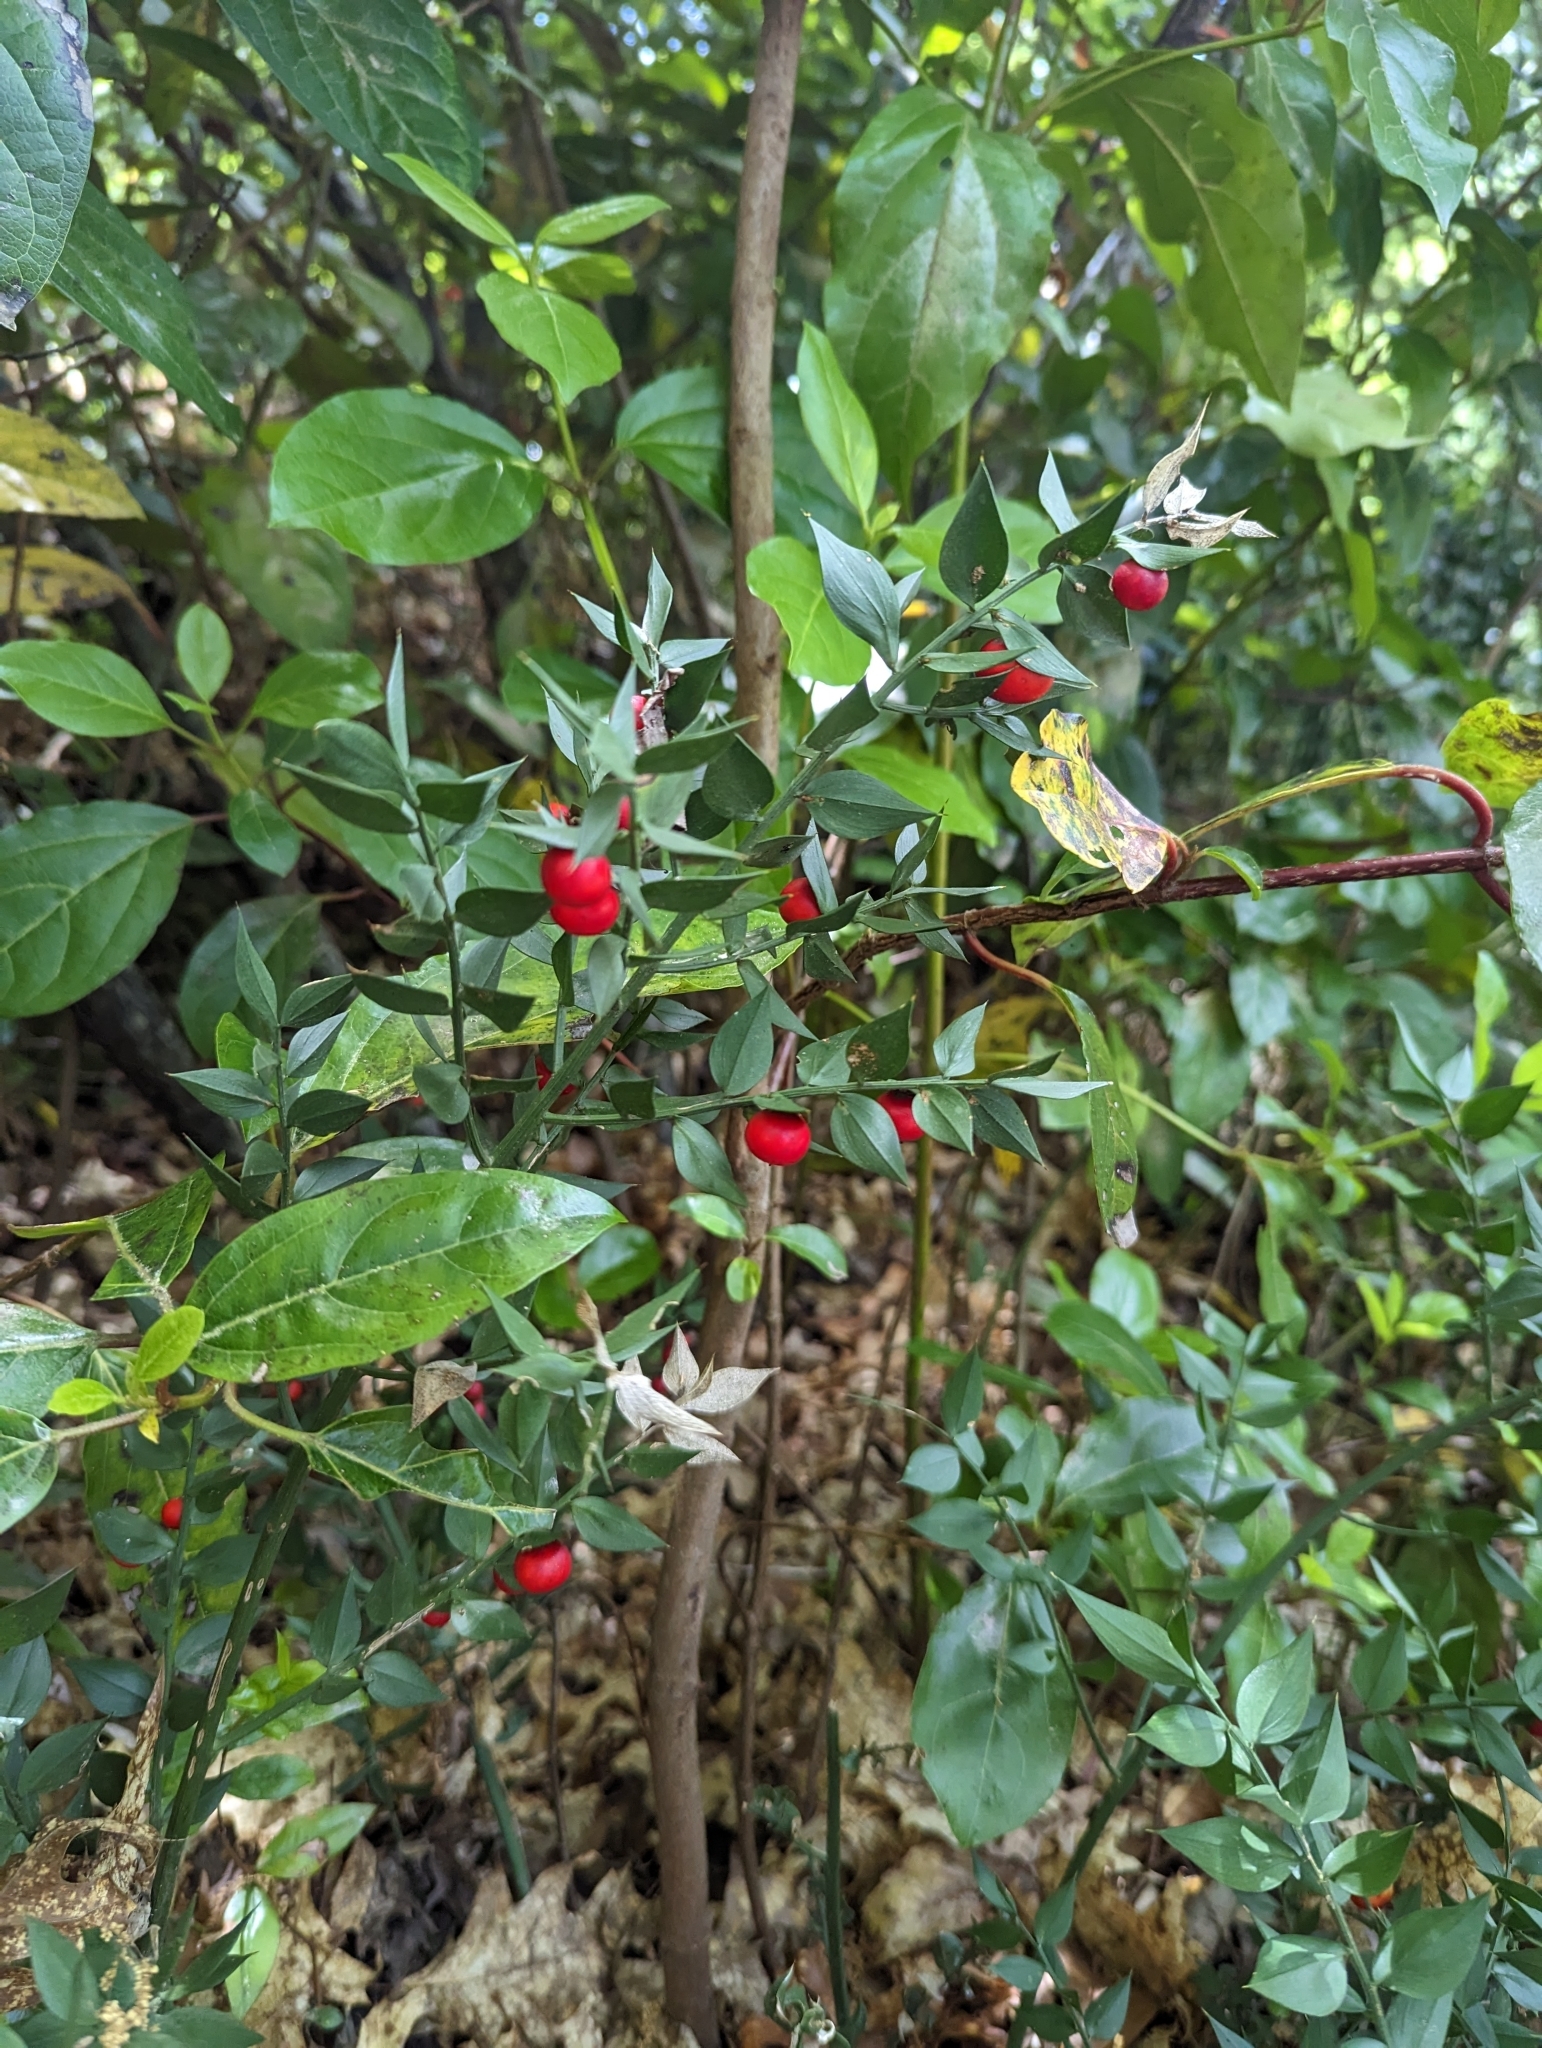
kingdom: Plantae
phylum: Tracheophyta
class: Liliopsida
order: Asparagales
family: Asparagaceae
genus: Ruscus
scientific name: Ruscus aculeatus
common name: Butcher's-broom
